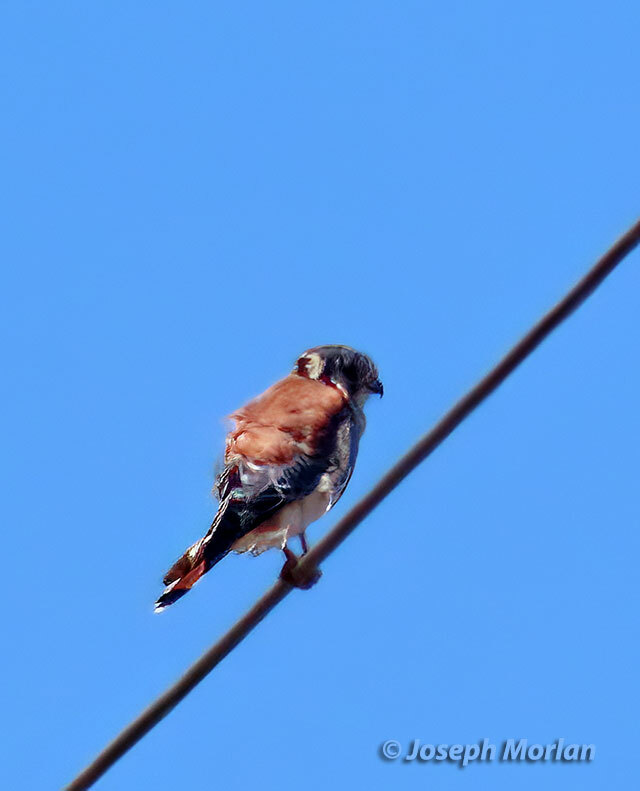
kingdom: Animalia
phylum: Chordata
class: Aves
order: Falconiformes
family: Falconidae
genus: Falco
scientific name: Falco sparverius
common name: American kestrel
